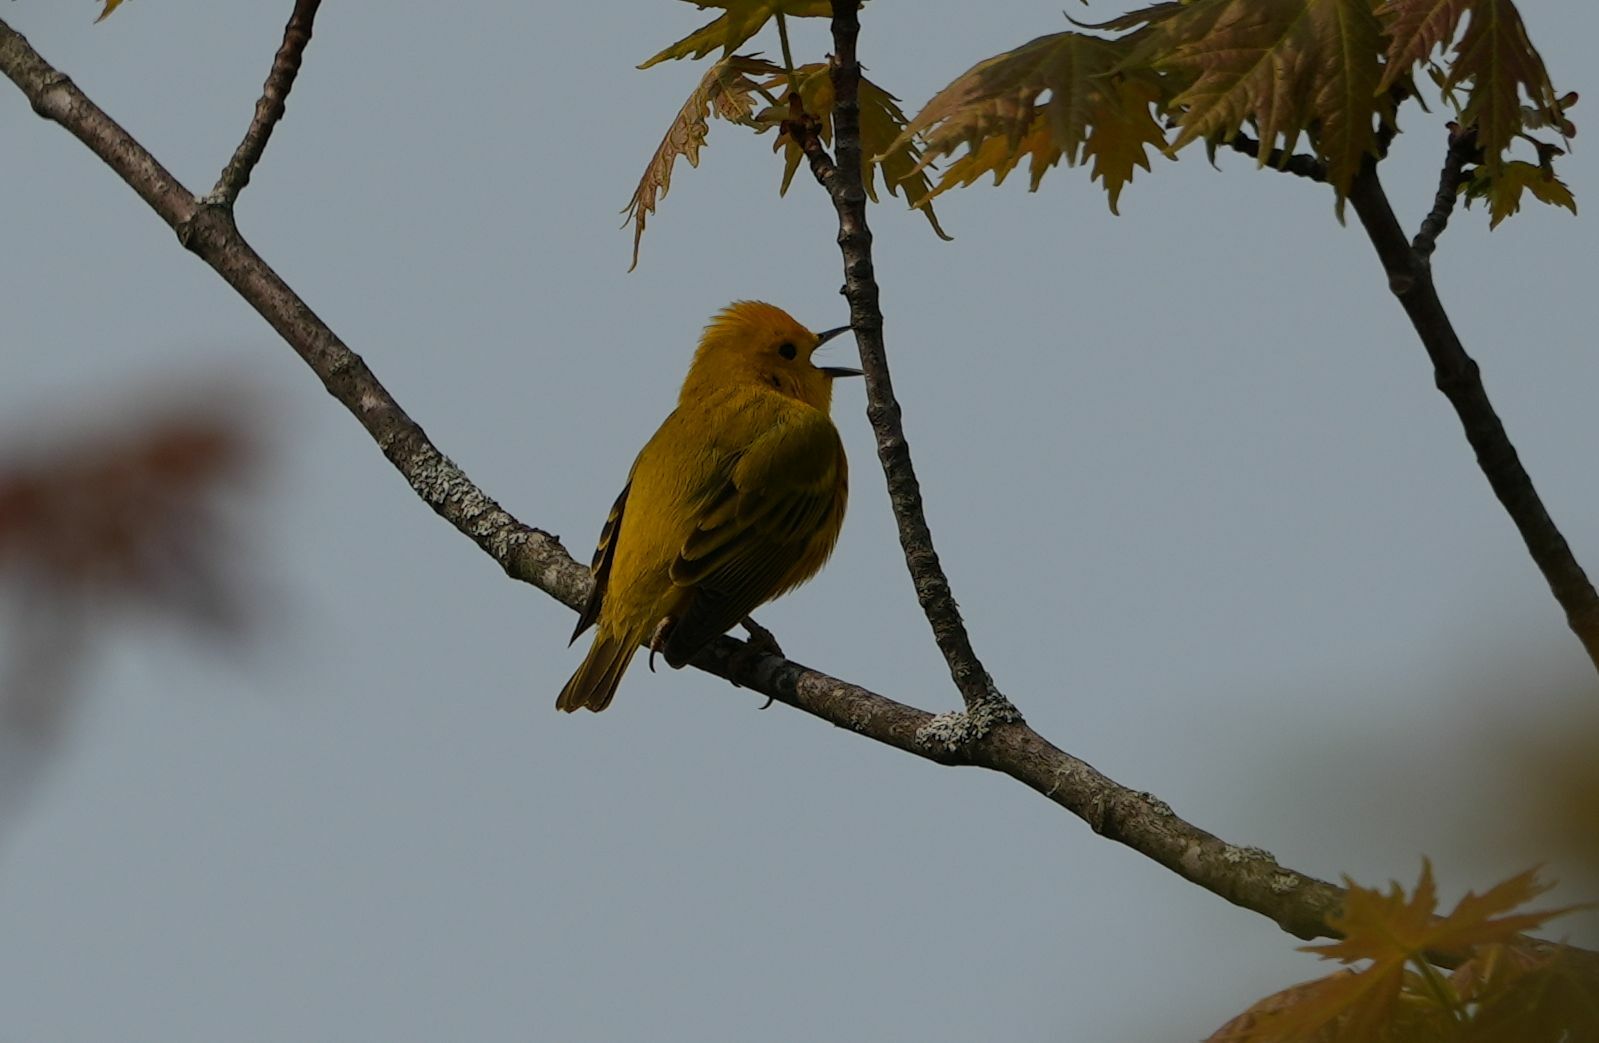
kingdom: Animalia
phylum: Chordata
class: Aves
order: Passeriformes
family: Parulidae
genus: Setophaga
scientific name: Setophaga petechia
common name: Yellow warbler
